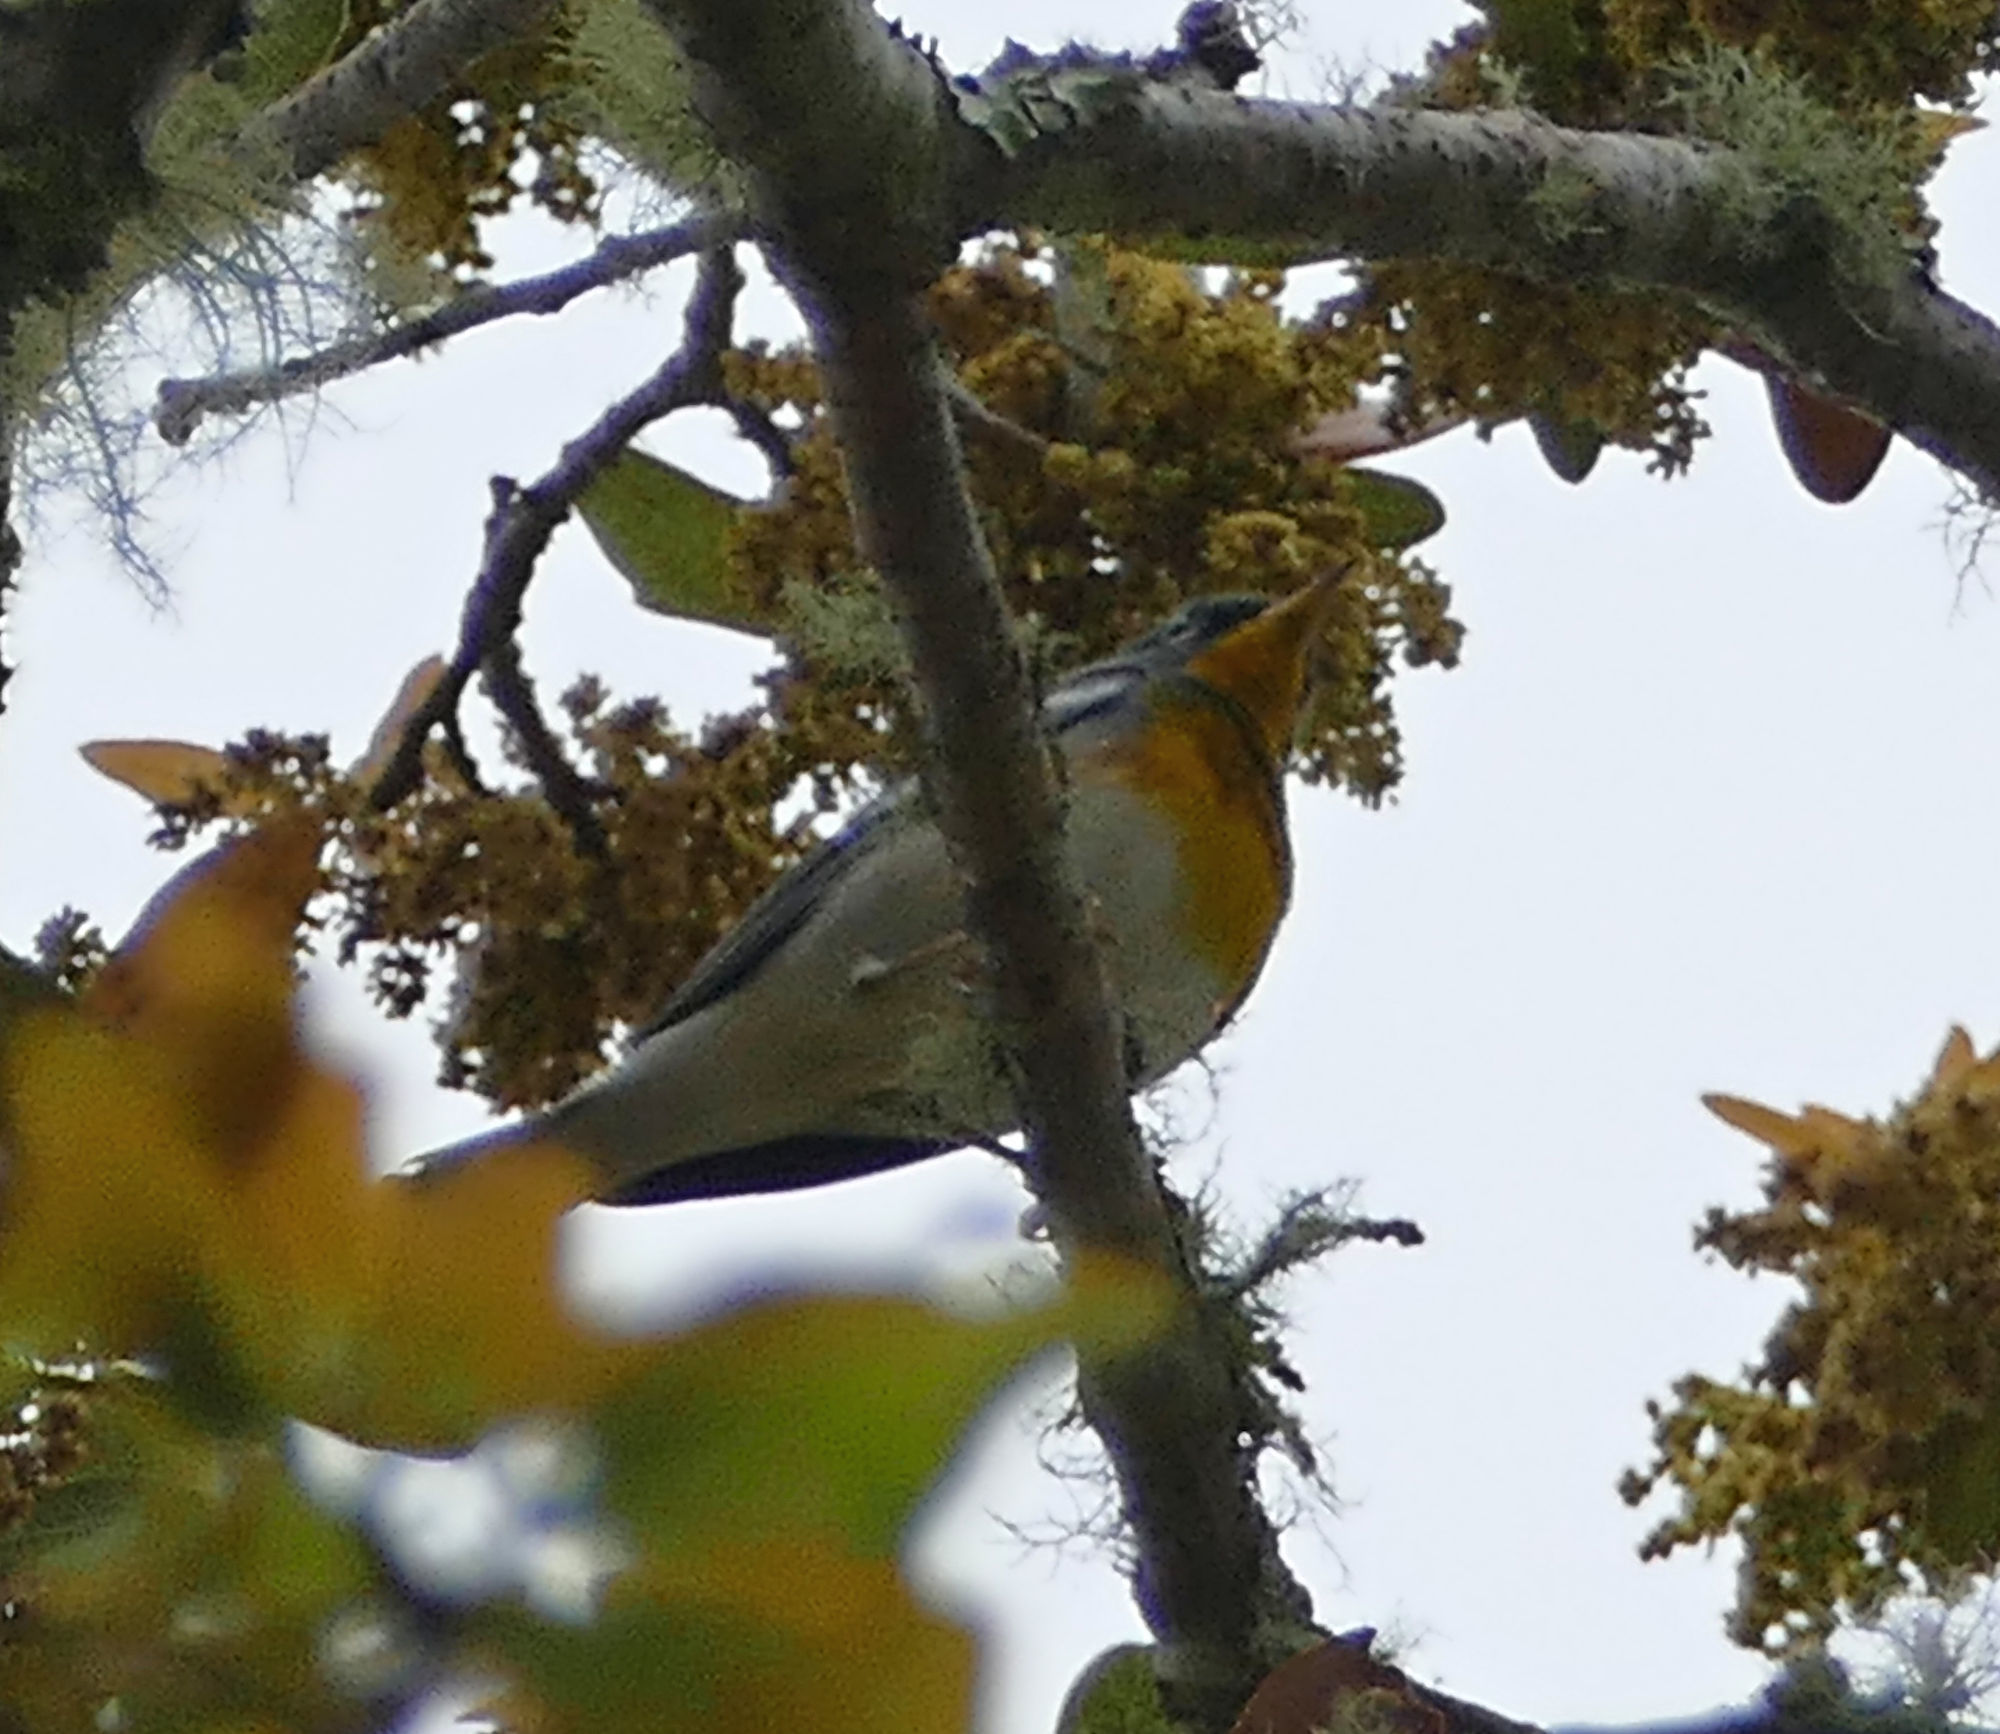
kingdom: Animalia
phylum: Chordata
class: Aves
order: Passeriformes
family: Parulidae
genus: Setophaga
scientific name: Setophaga americana
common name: Northern parula
